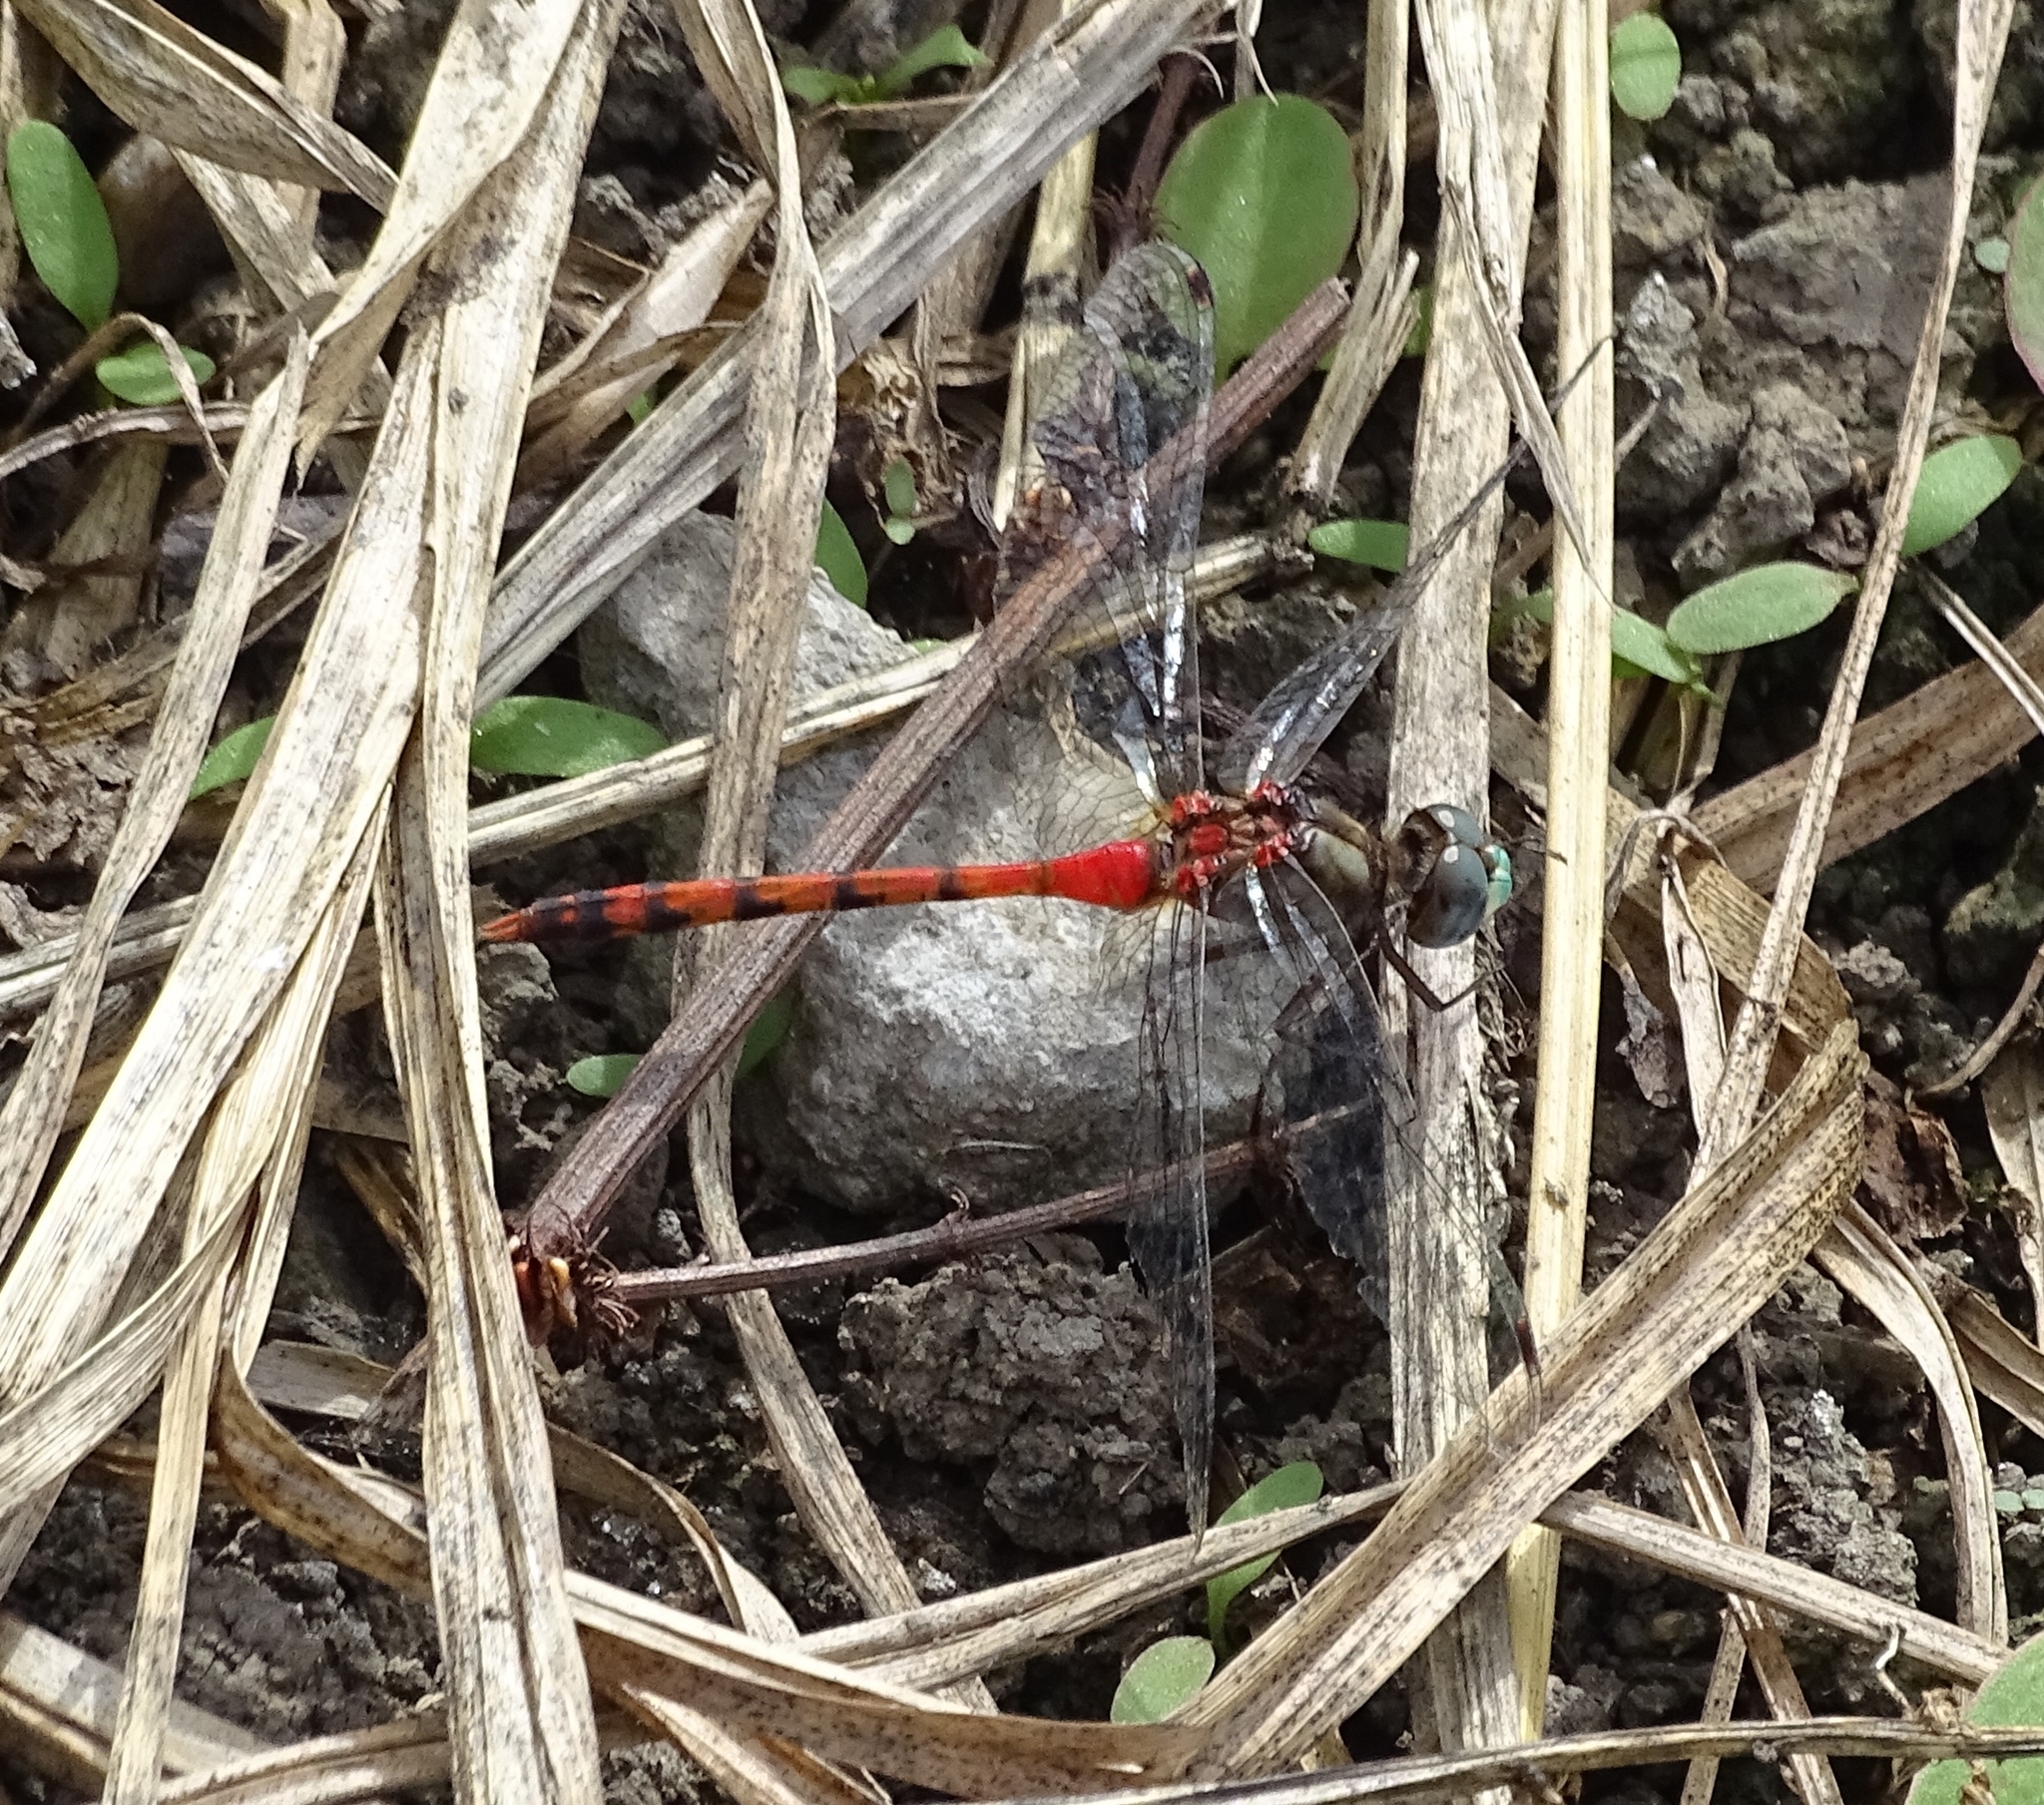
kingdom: Animalia
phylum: Arthropoda
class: Insecta
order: Odonata
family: Libellulidae
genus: Sympetrum
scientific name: Sympetrum ambiguum
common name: Blue-faced meadowhawk
